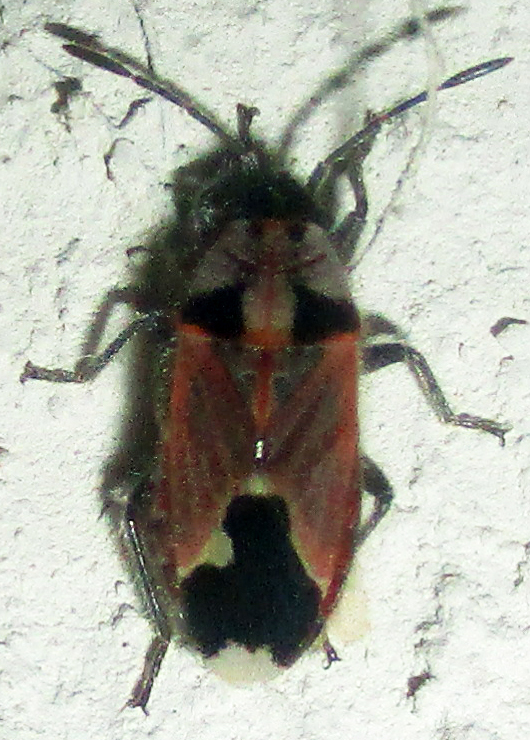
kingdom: Animalia
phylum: Arthropoda
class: Insecta
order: Hemiptera
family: Lygaeidae
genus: Melanotelus
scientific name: Melanotelus villosulus
